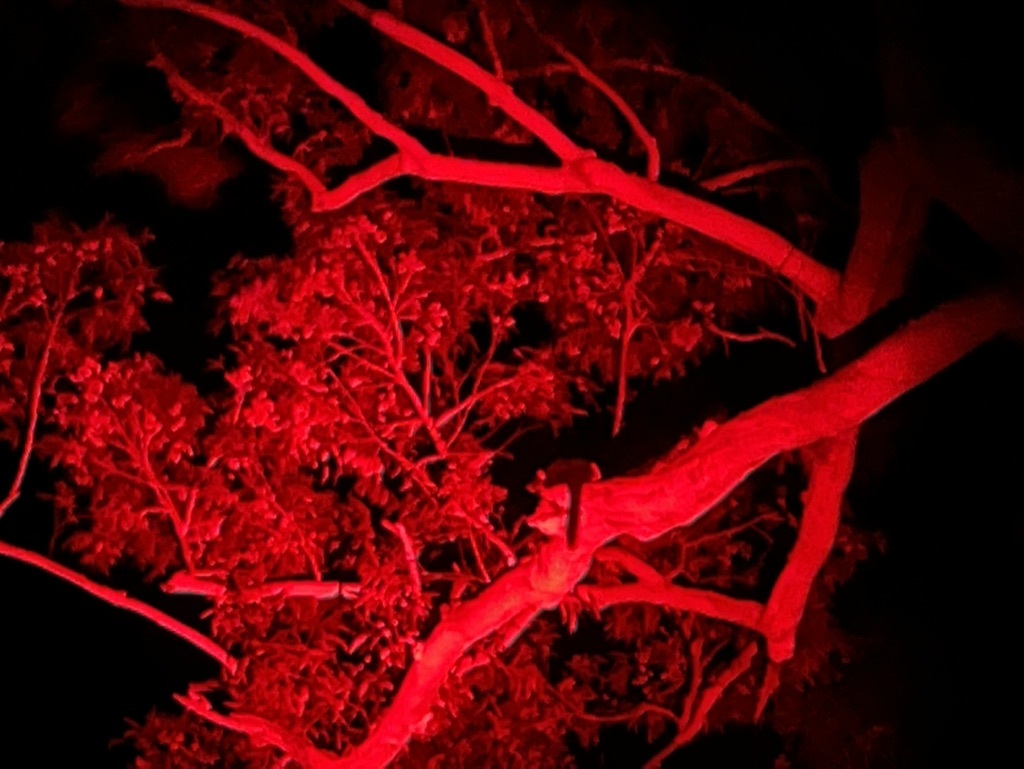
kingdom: Animalia
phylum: Chordata
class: Mammalia
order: Diprotodontia
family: Pseudocheiridae
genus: Petauroides
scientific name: Petauroides volans
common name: Greater glider
